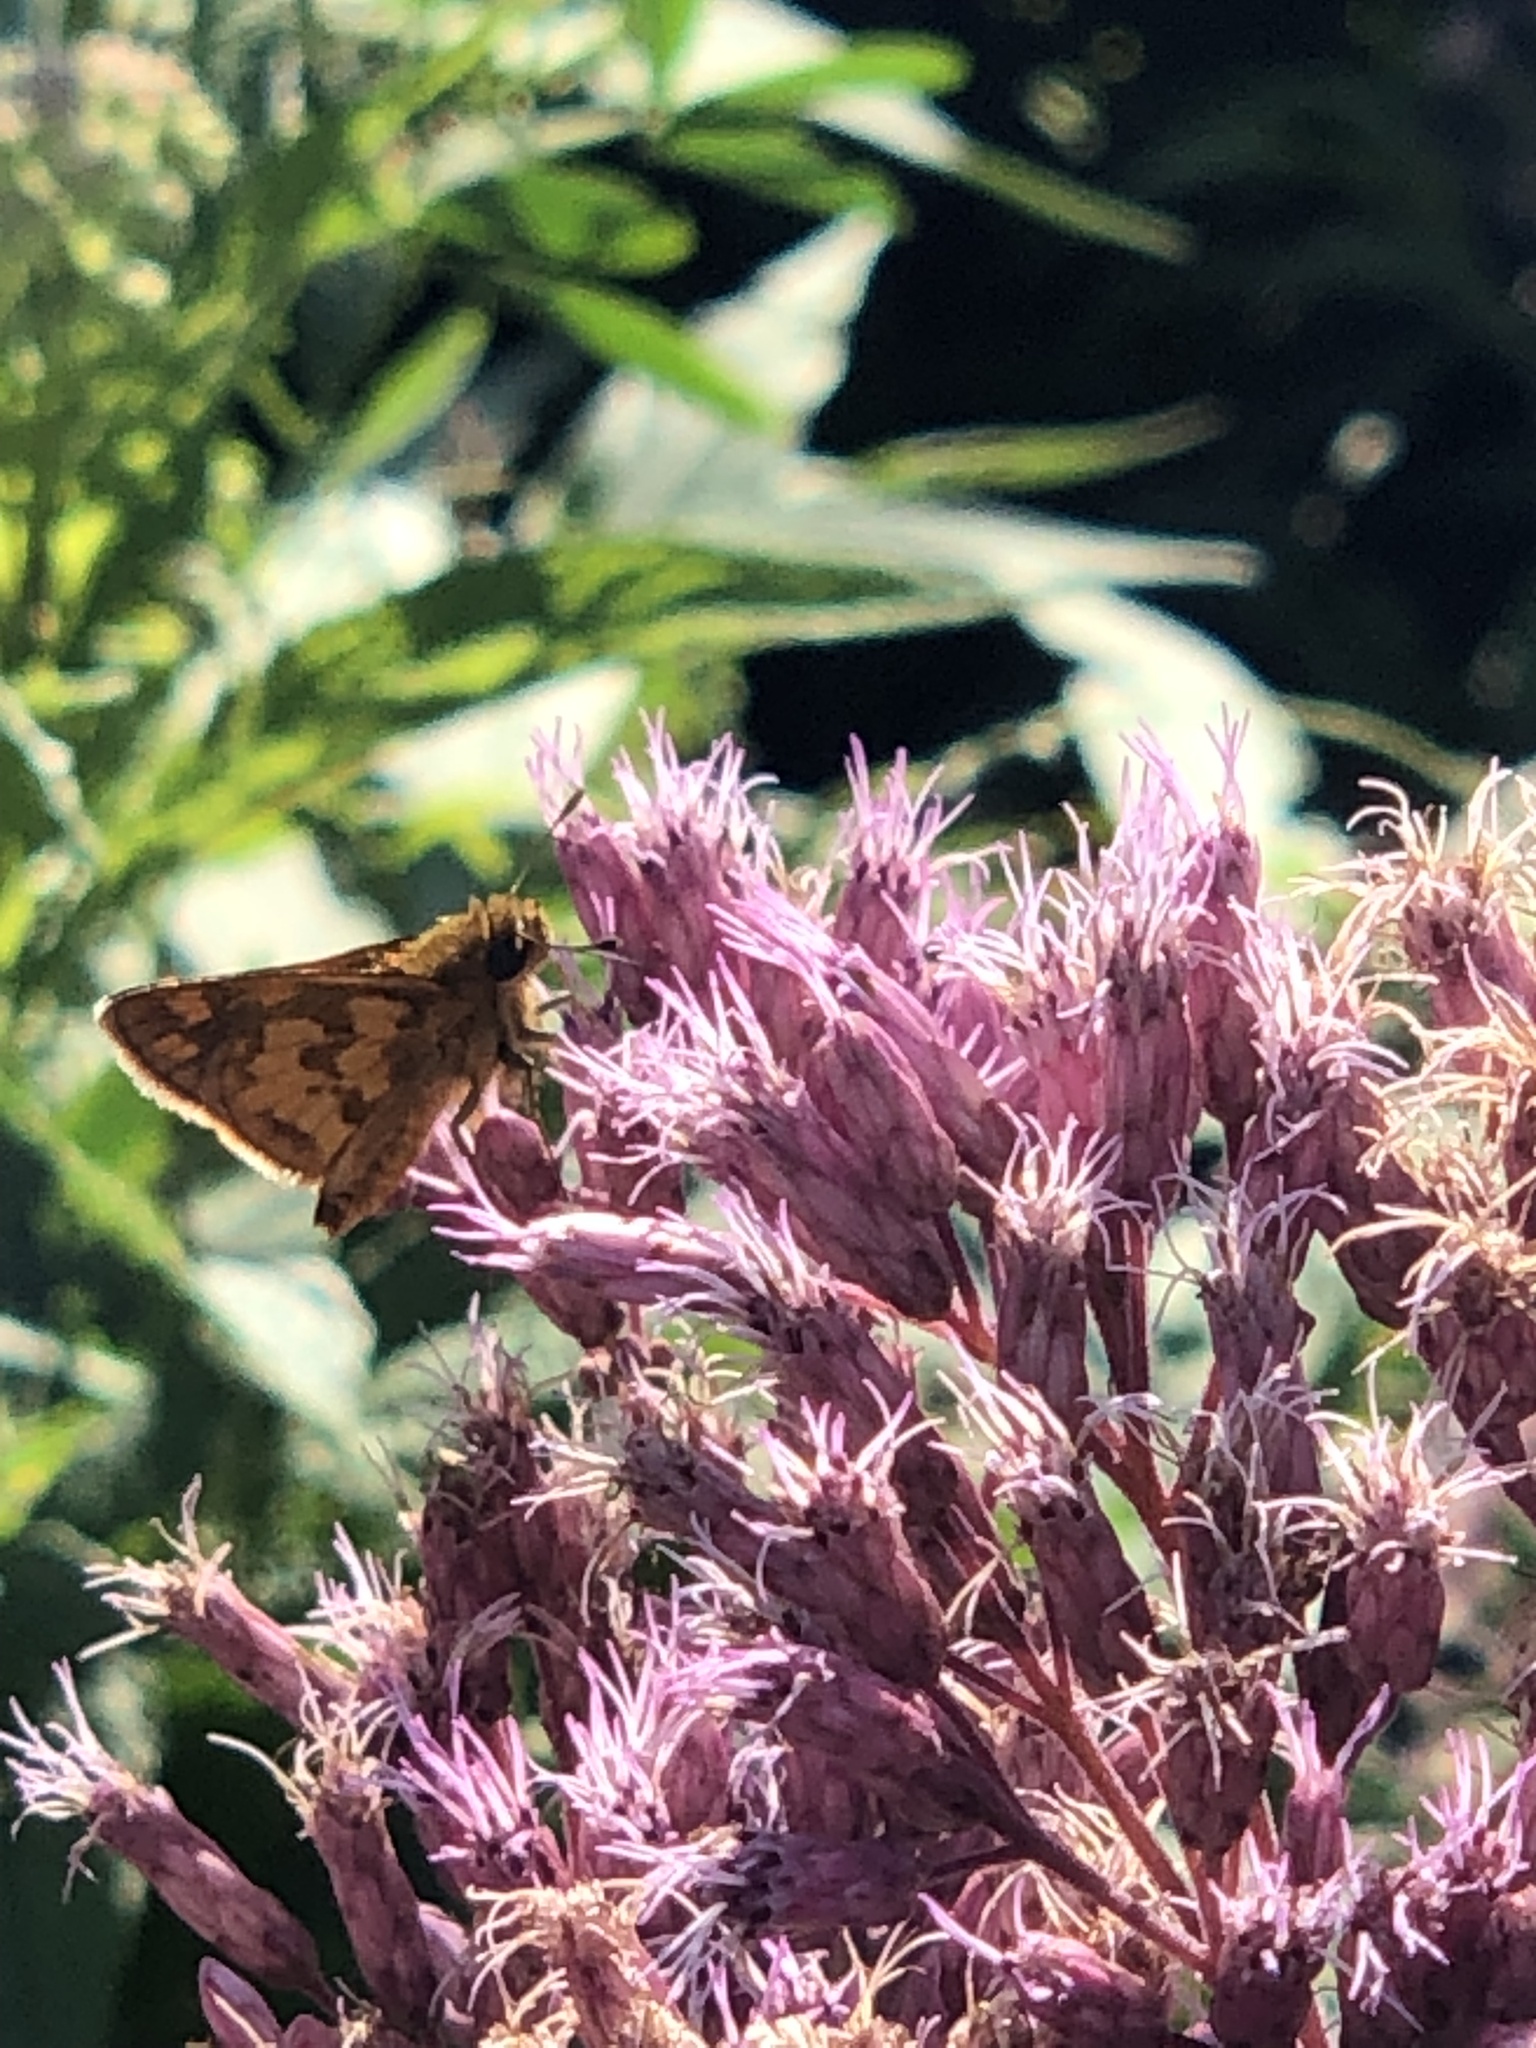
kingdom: Animalia
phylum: Arthropoda
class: Insecta
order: Lepidoptera
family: Hesperiidae
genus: Polites
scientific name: Polites coras
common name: Peck's skipper
